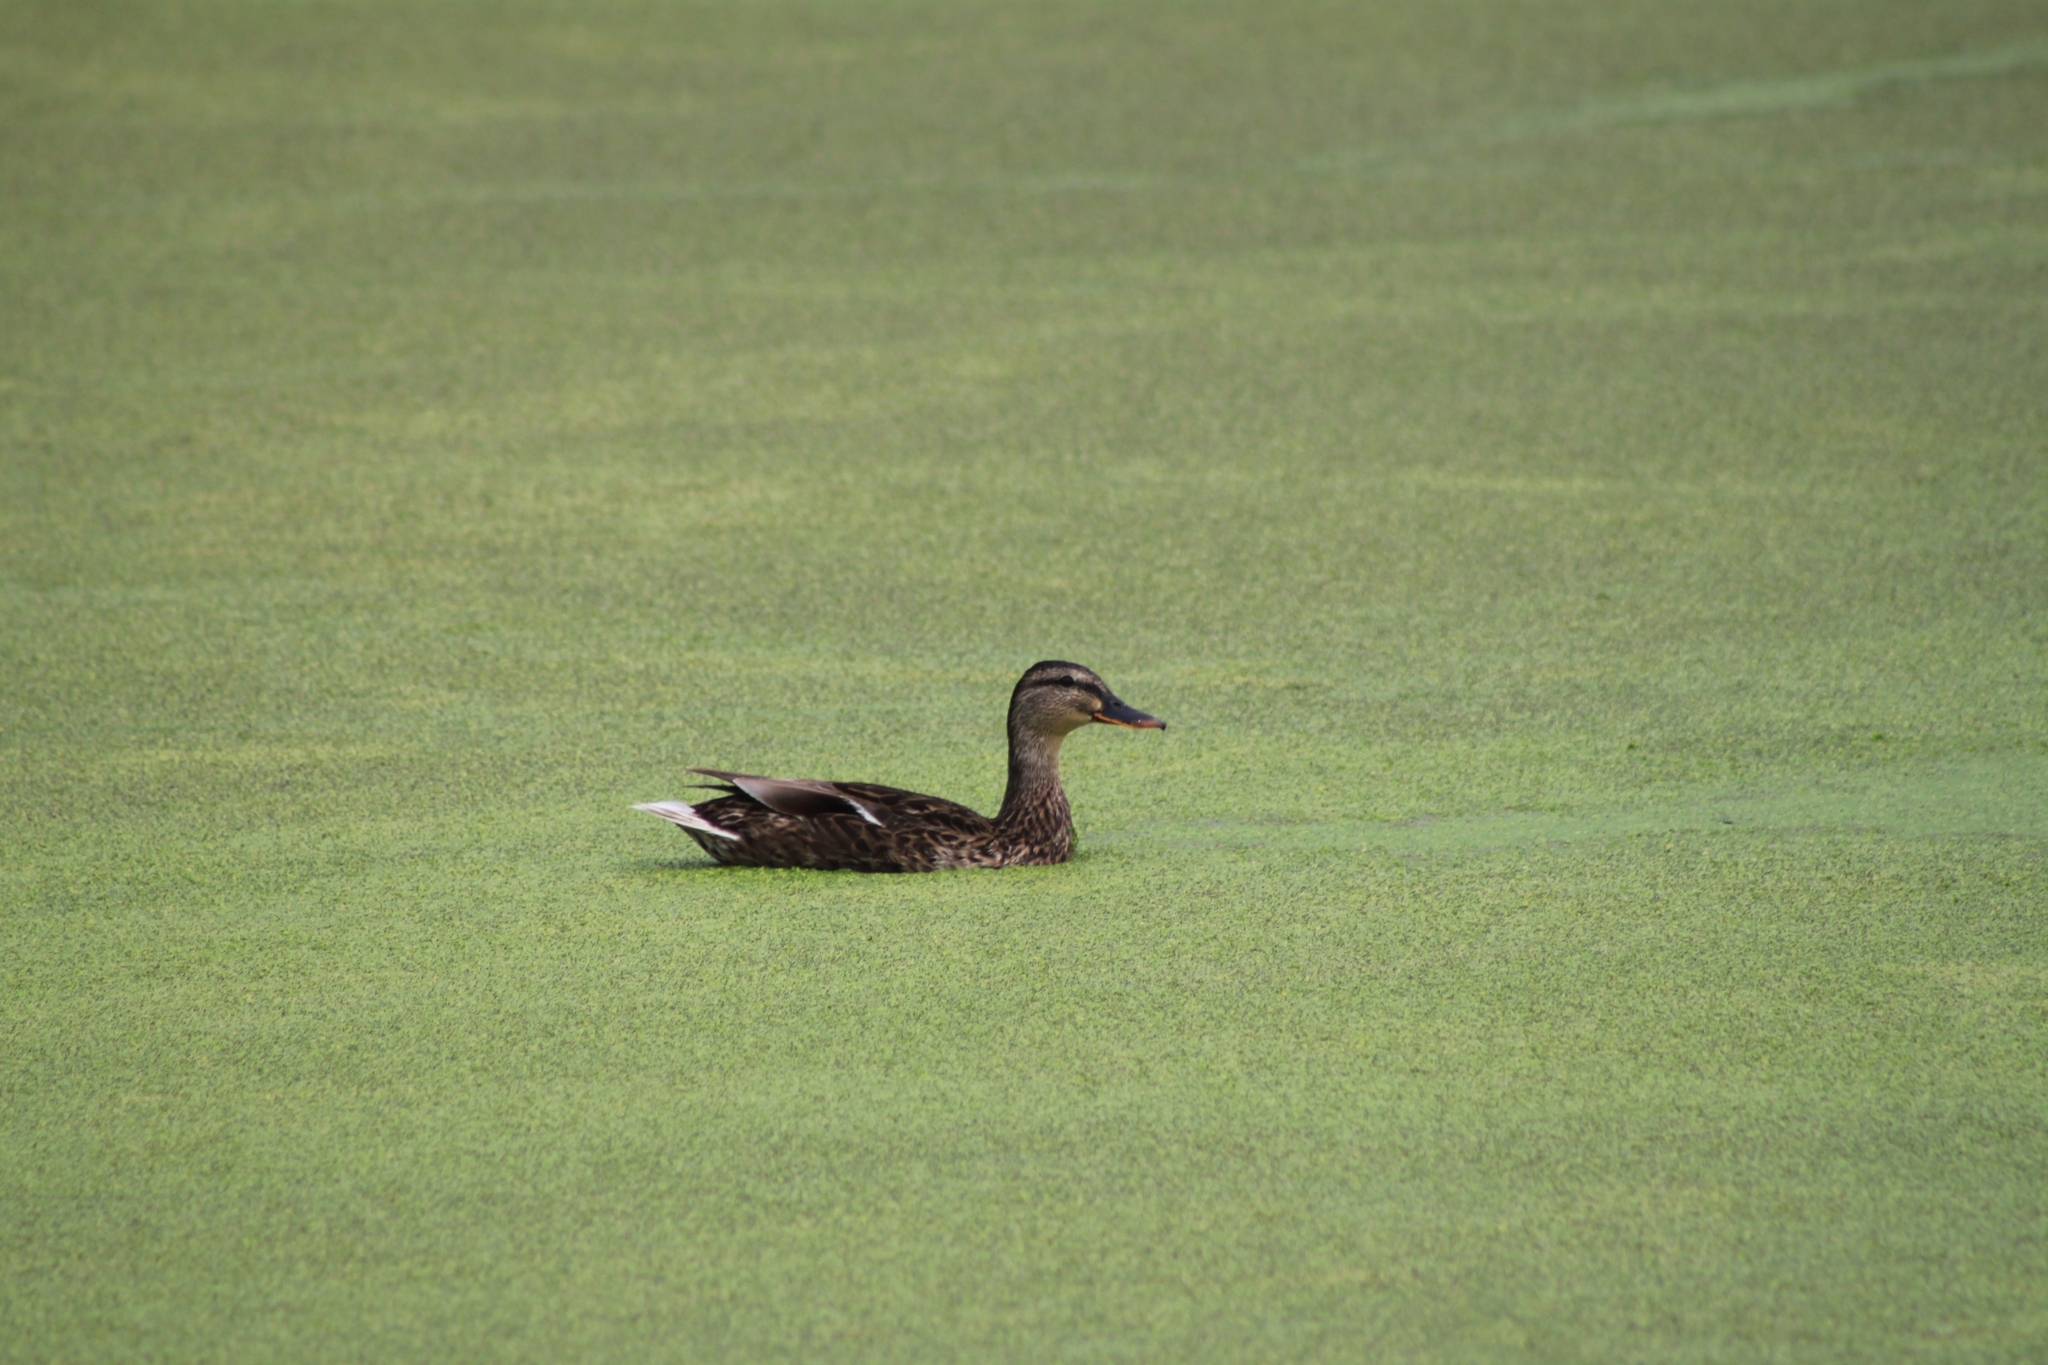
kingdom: Animalia
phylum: Chordata
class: Aves
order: Anseriformes
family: Anatidae
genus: Anas
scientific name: Anas platyrhynchos
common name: Mallard
